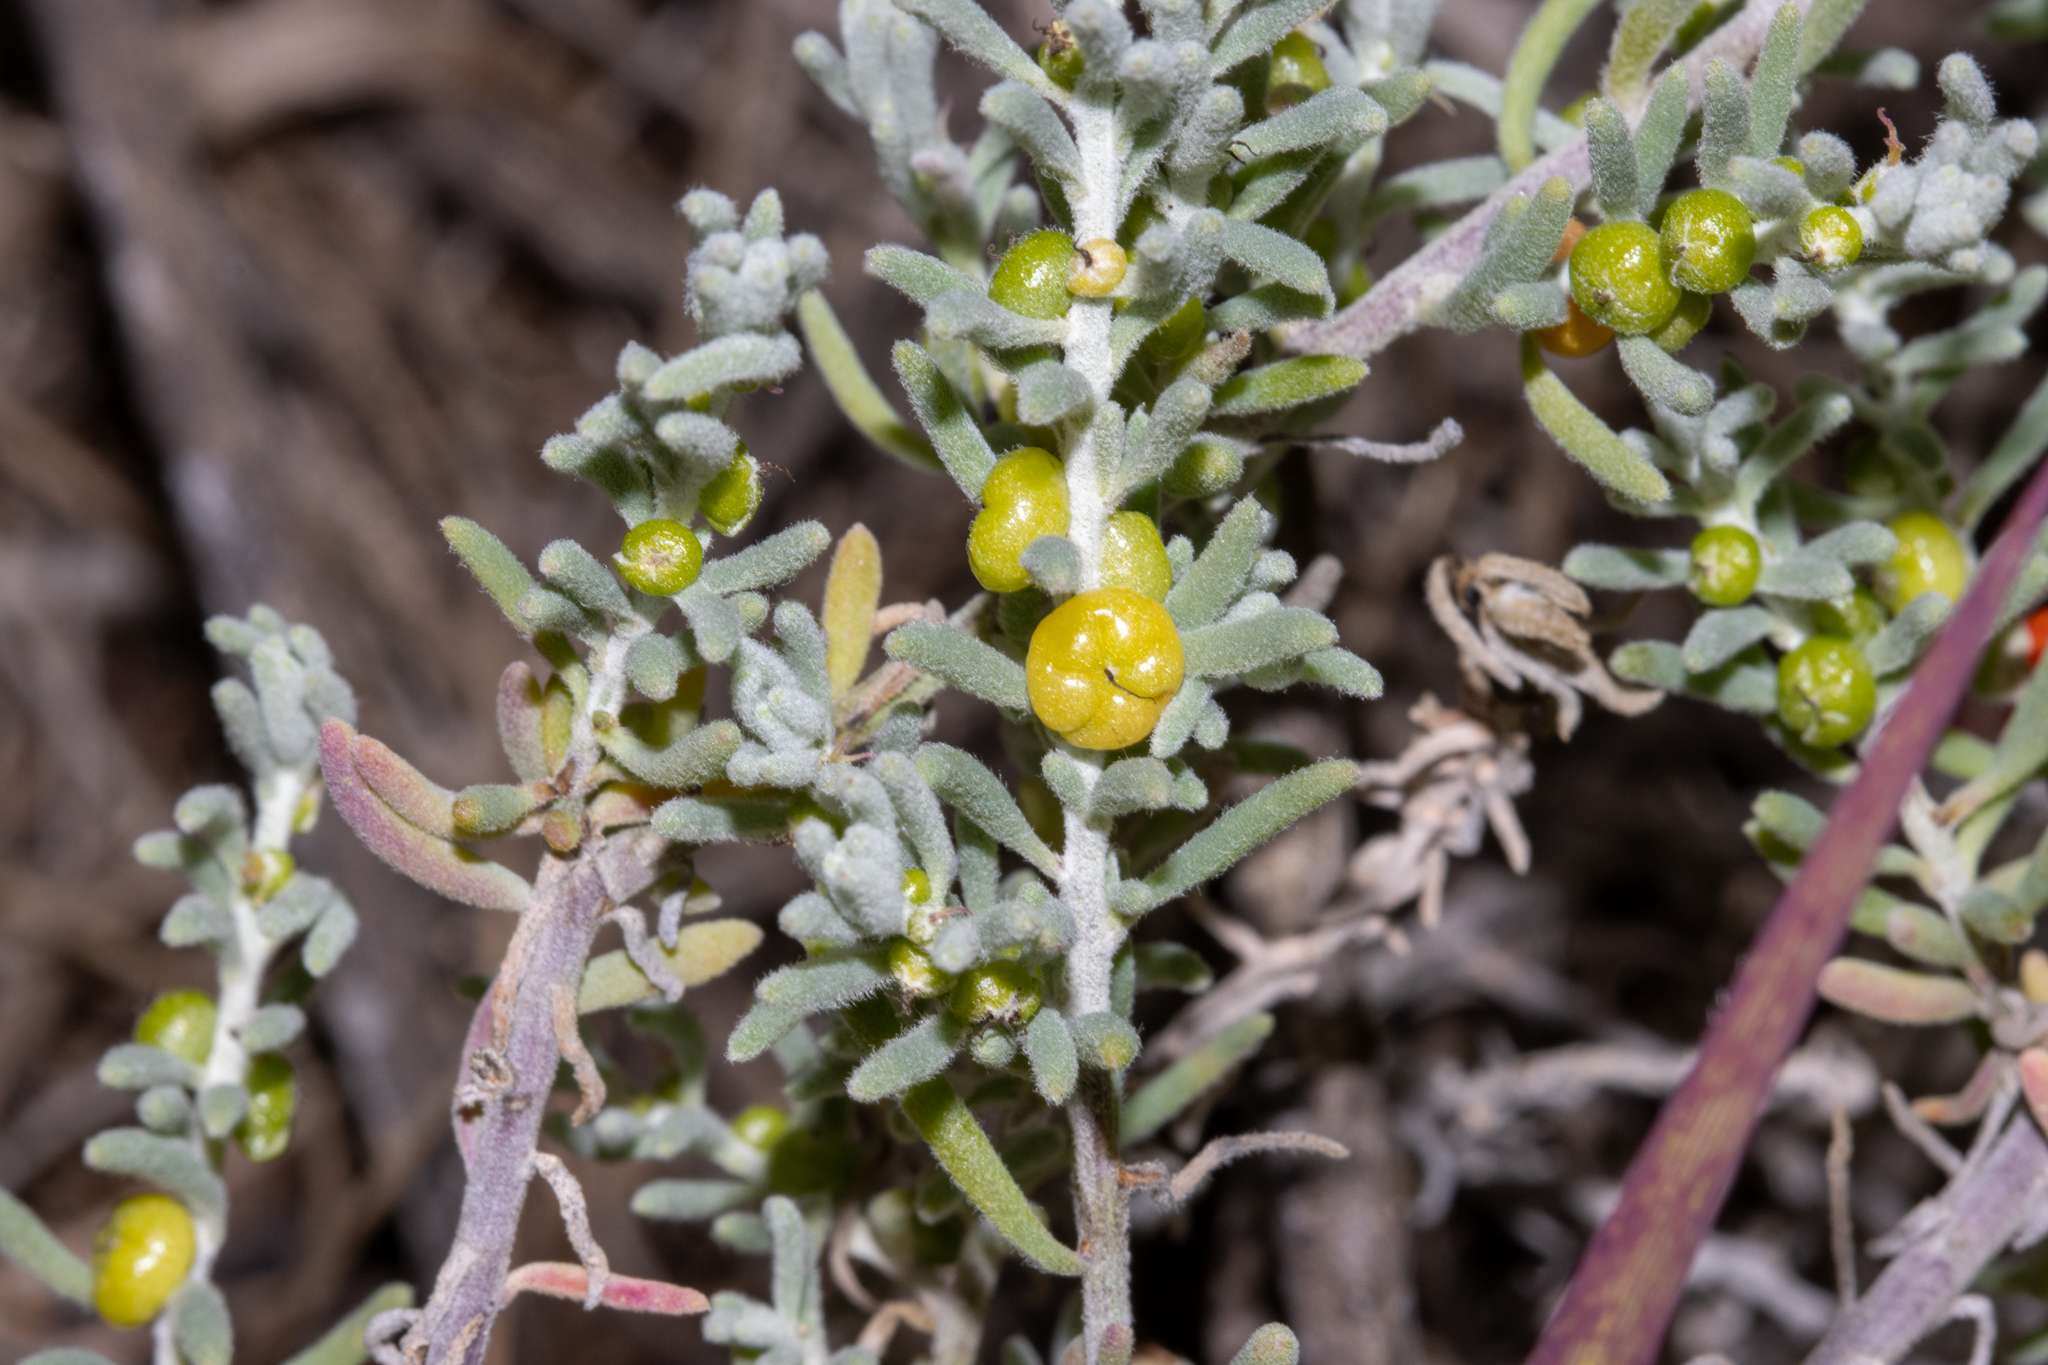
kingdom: Plantae
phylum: Tracheophyta
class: Magnoliopsida
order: Caryophyllales
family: Amaranthaceae
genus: Enchylaena
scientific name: Enchylaena tomentosa
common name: Ruby saltbush
